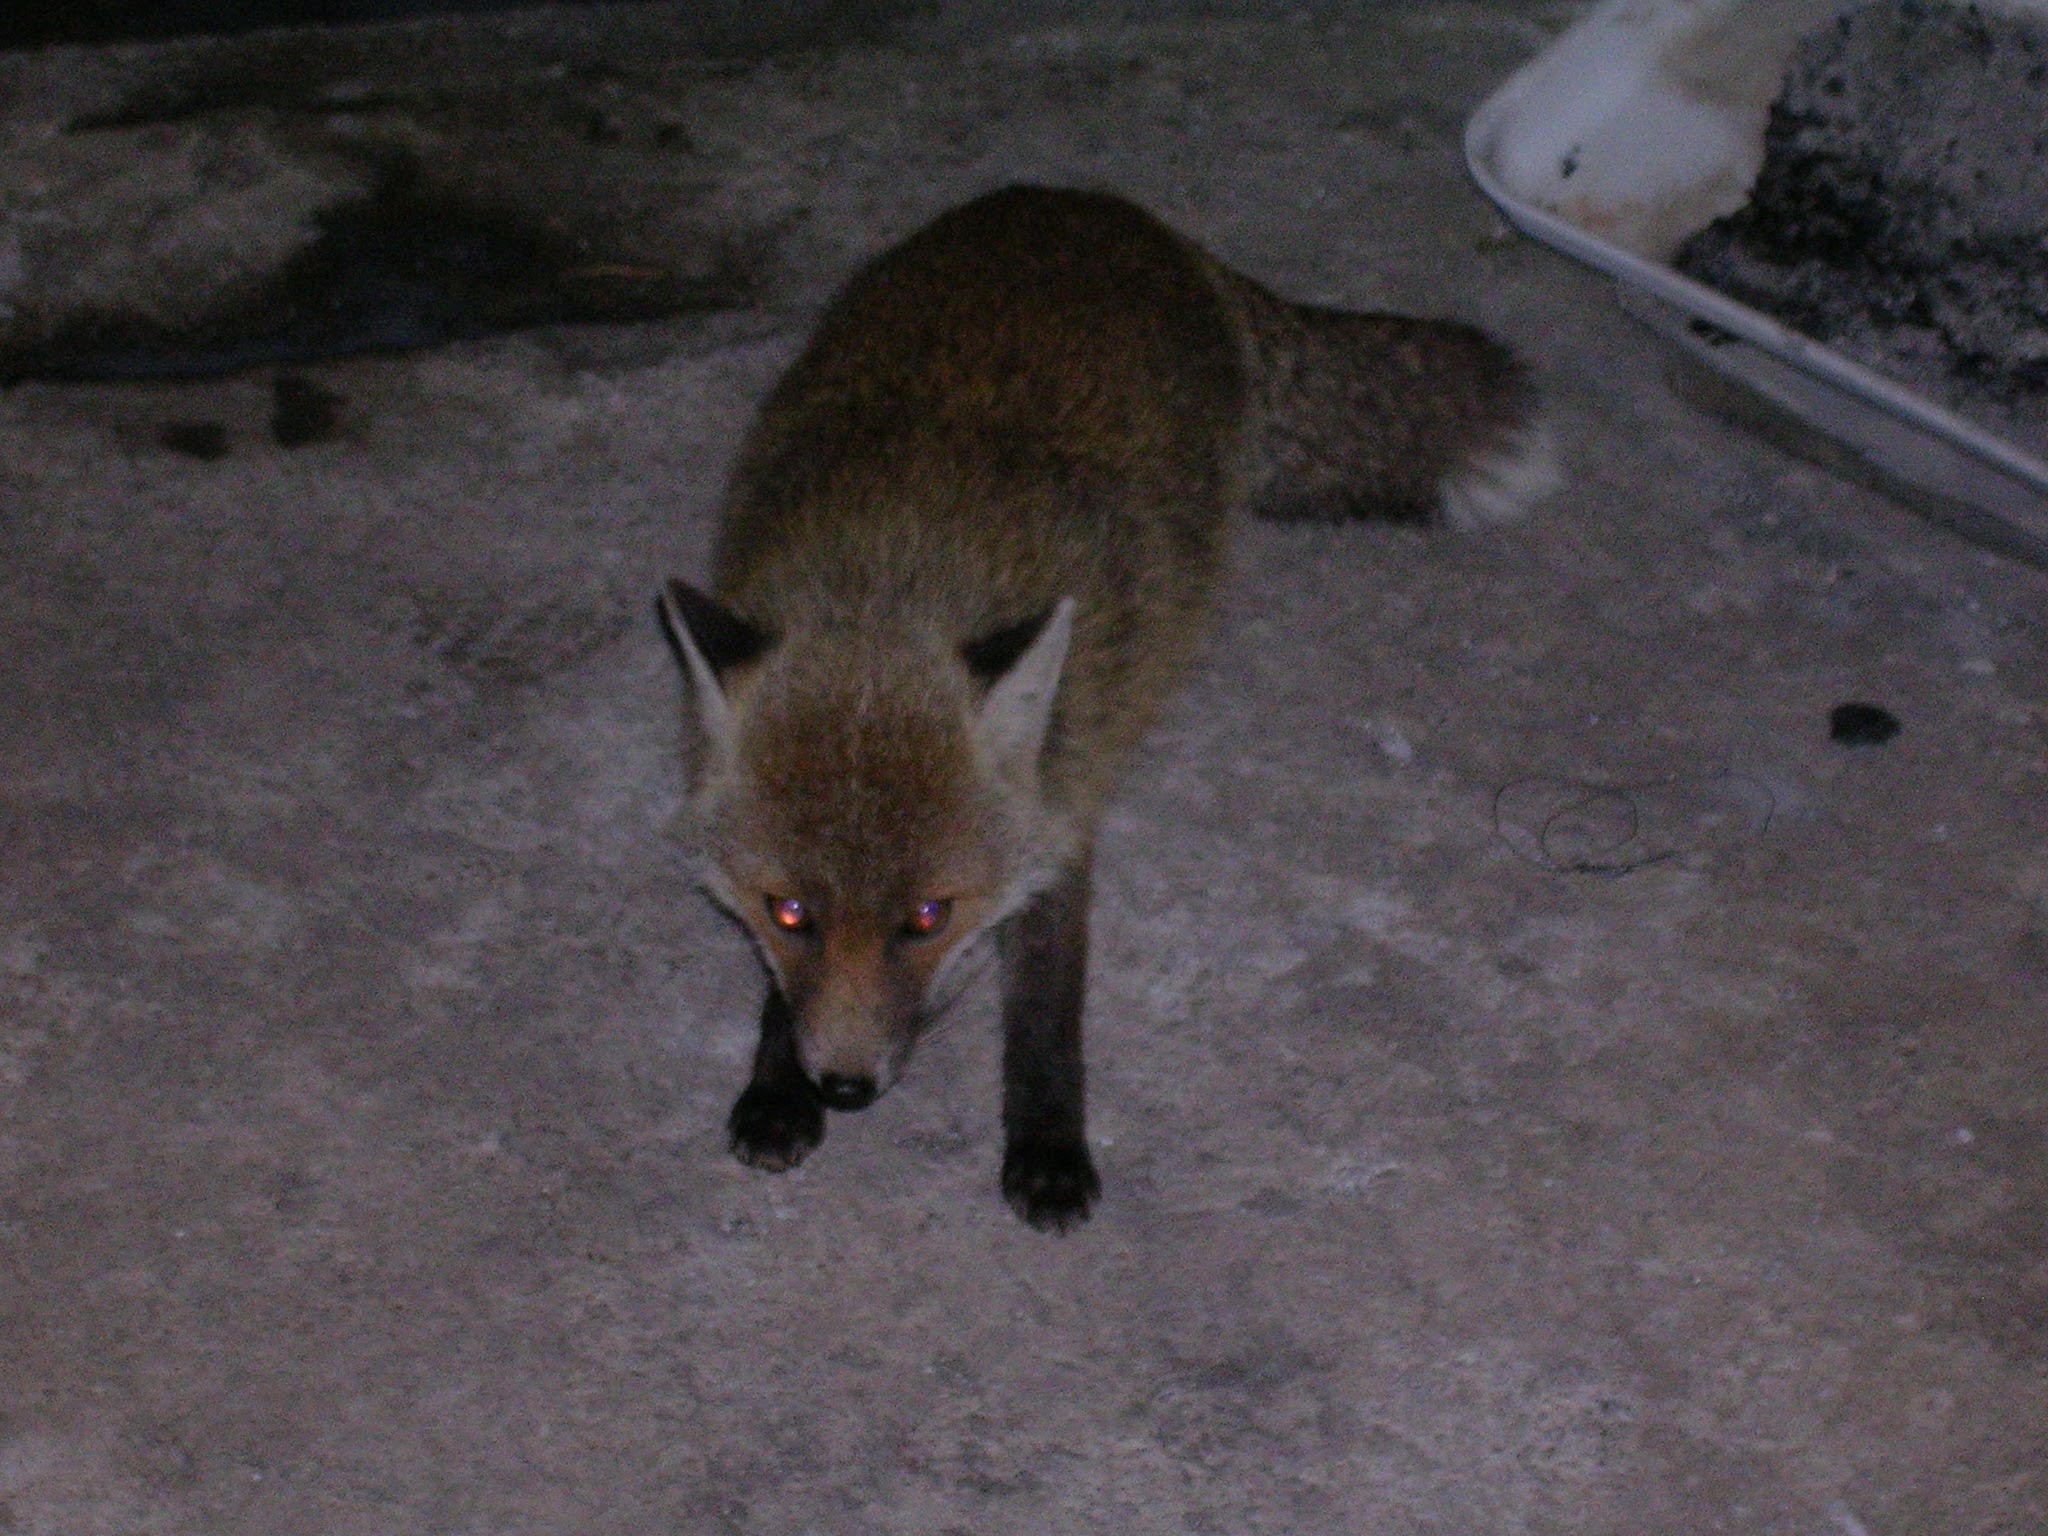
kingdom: Animalia
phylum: Chordata
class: Mammalia
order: Carnivora
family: Canidae
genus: Vulpes
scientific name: Vulpes vulpes
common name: Red fox
